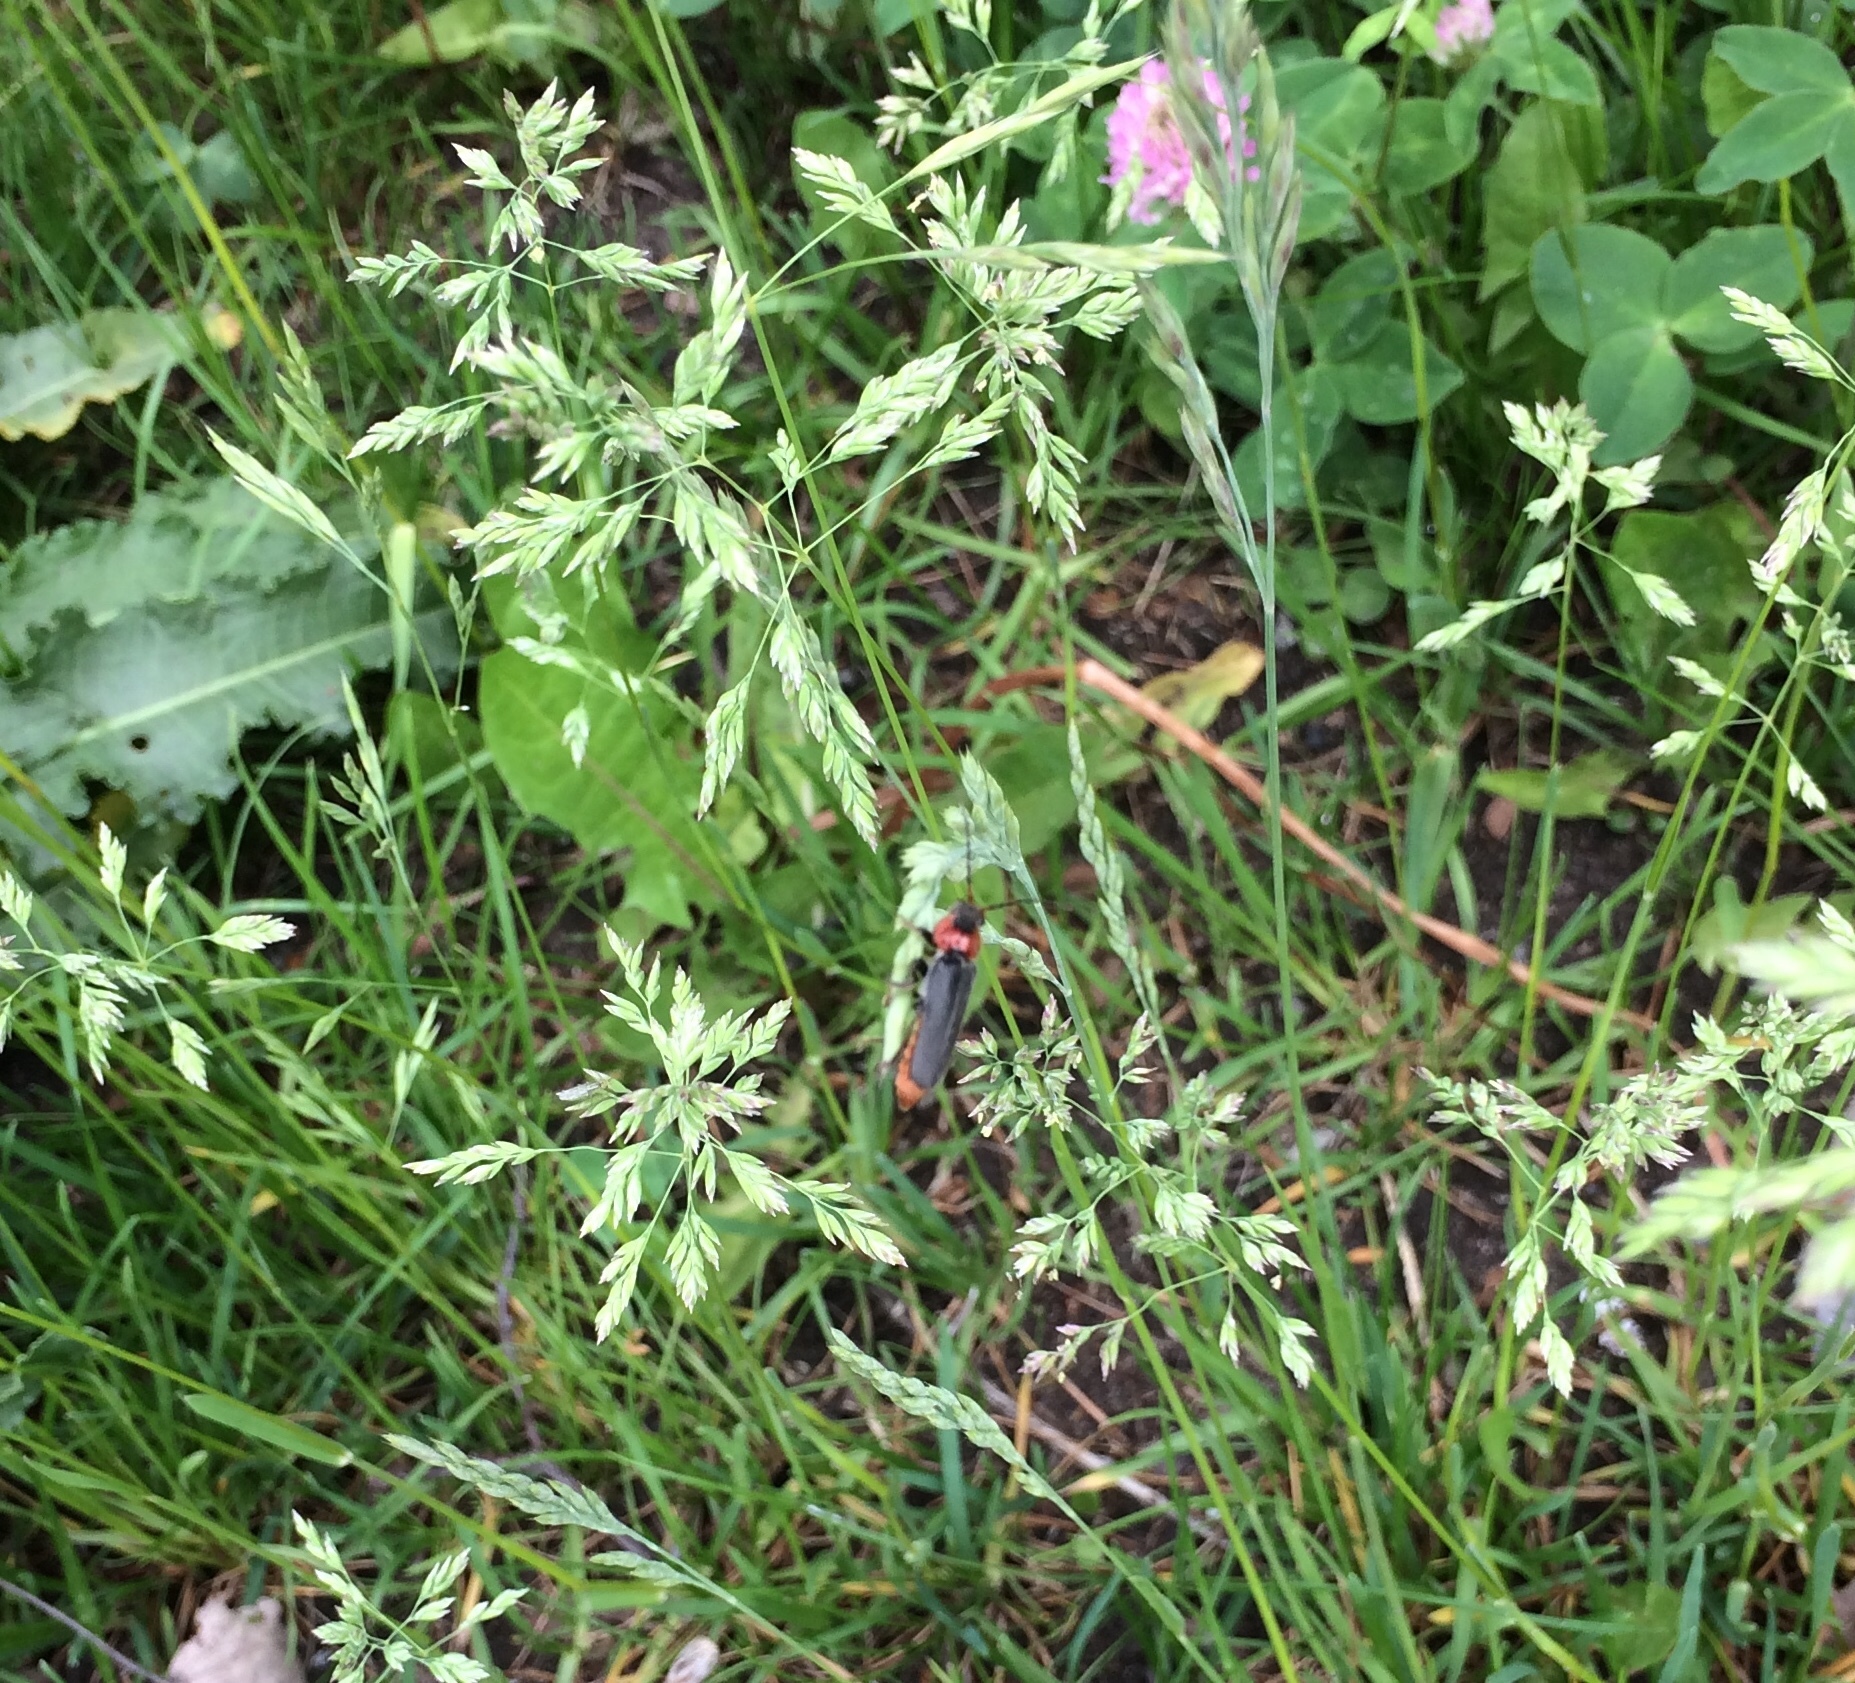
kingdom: Animalia
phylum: Arthropoda
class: Insecta
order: Coleoptera
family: Cantharidae
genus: Cantharis
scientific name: Cantharis fusca
